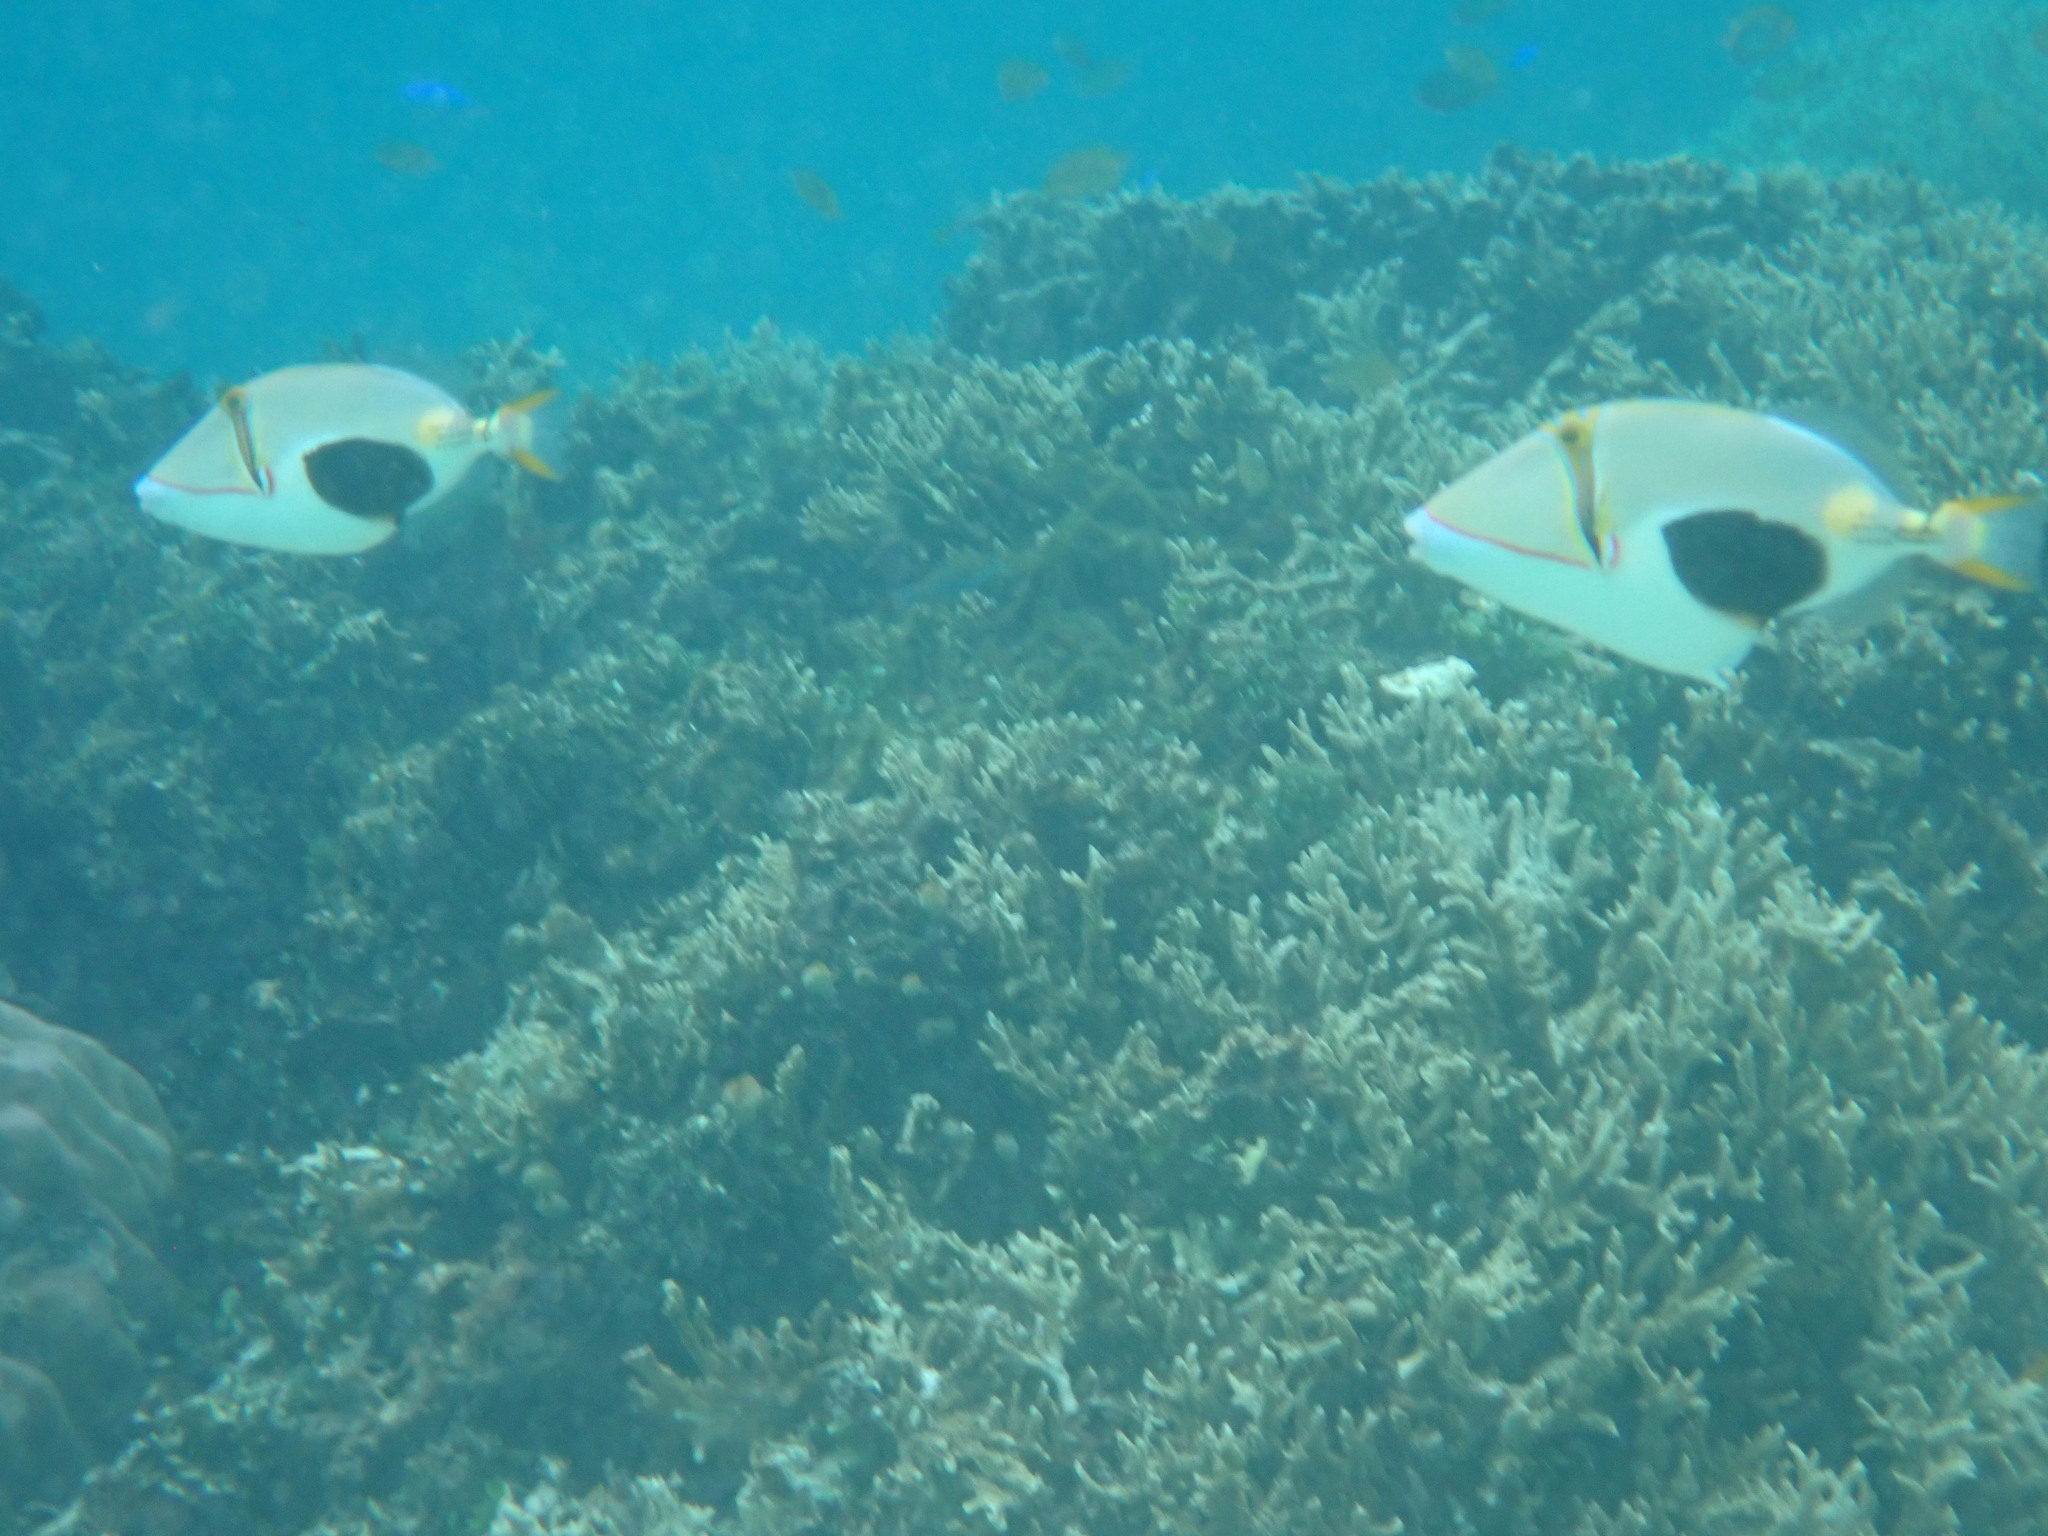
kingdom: Animalia
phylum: Chordata
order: Tetraodontiformes
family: Balistidae
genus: Rhinecanthus
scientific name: Rhinecanthus verrucosus
